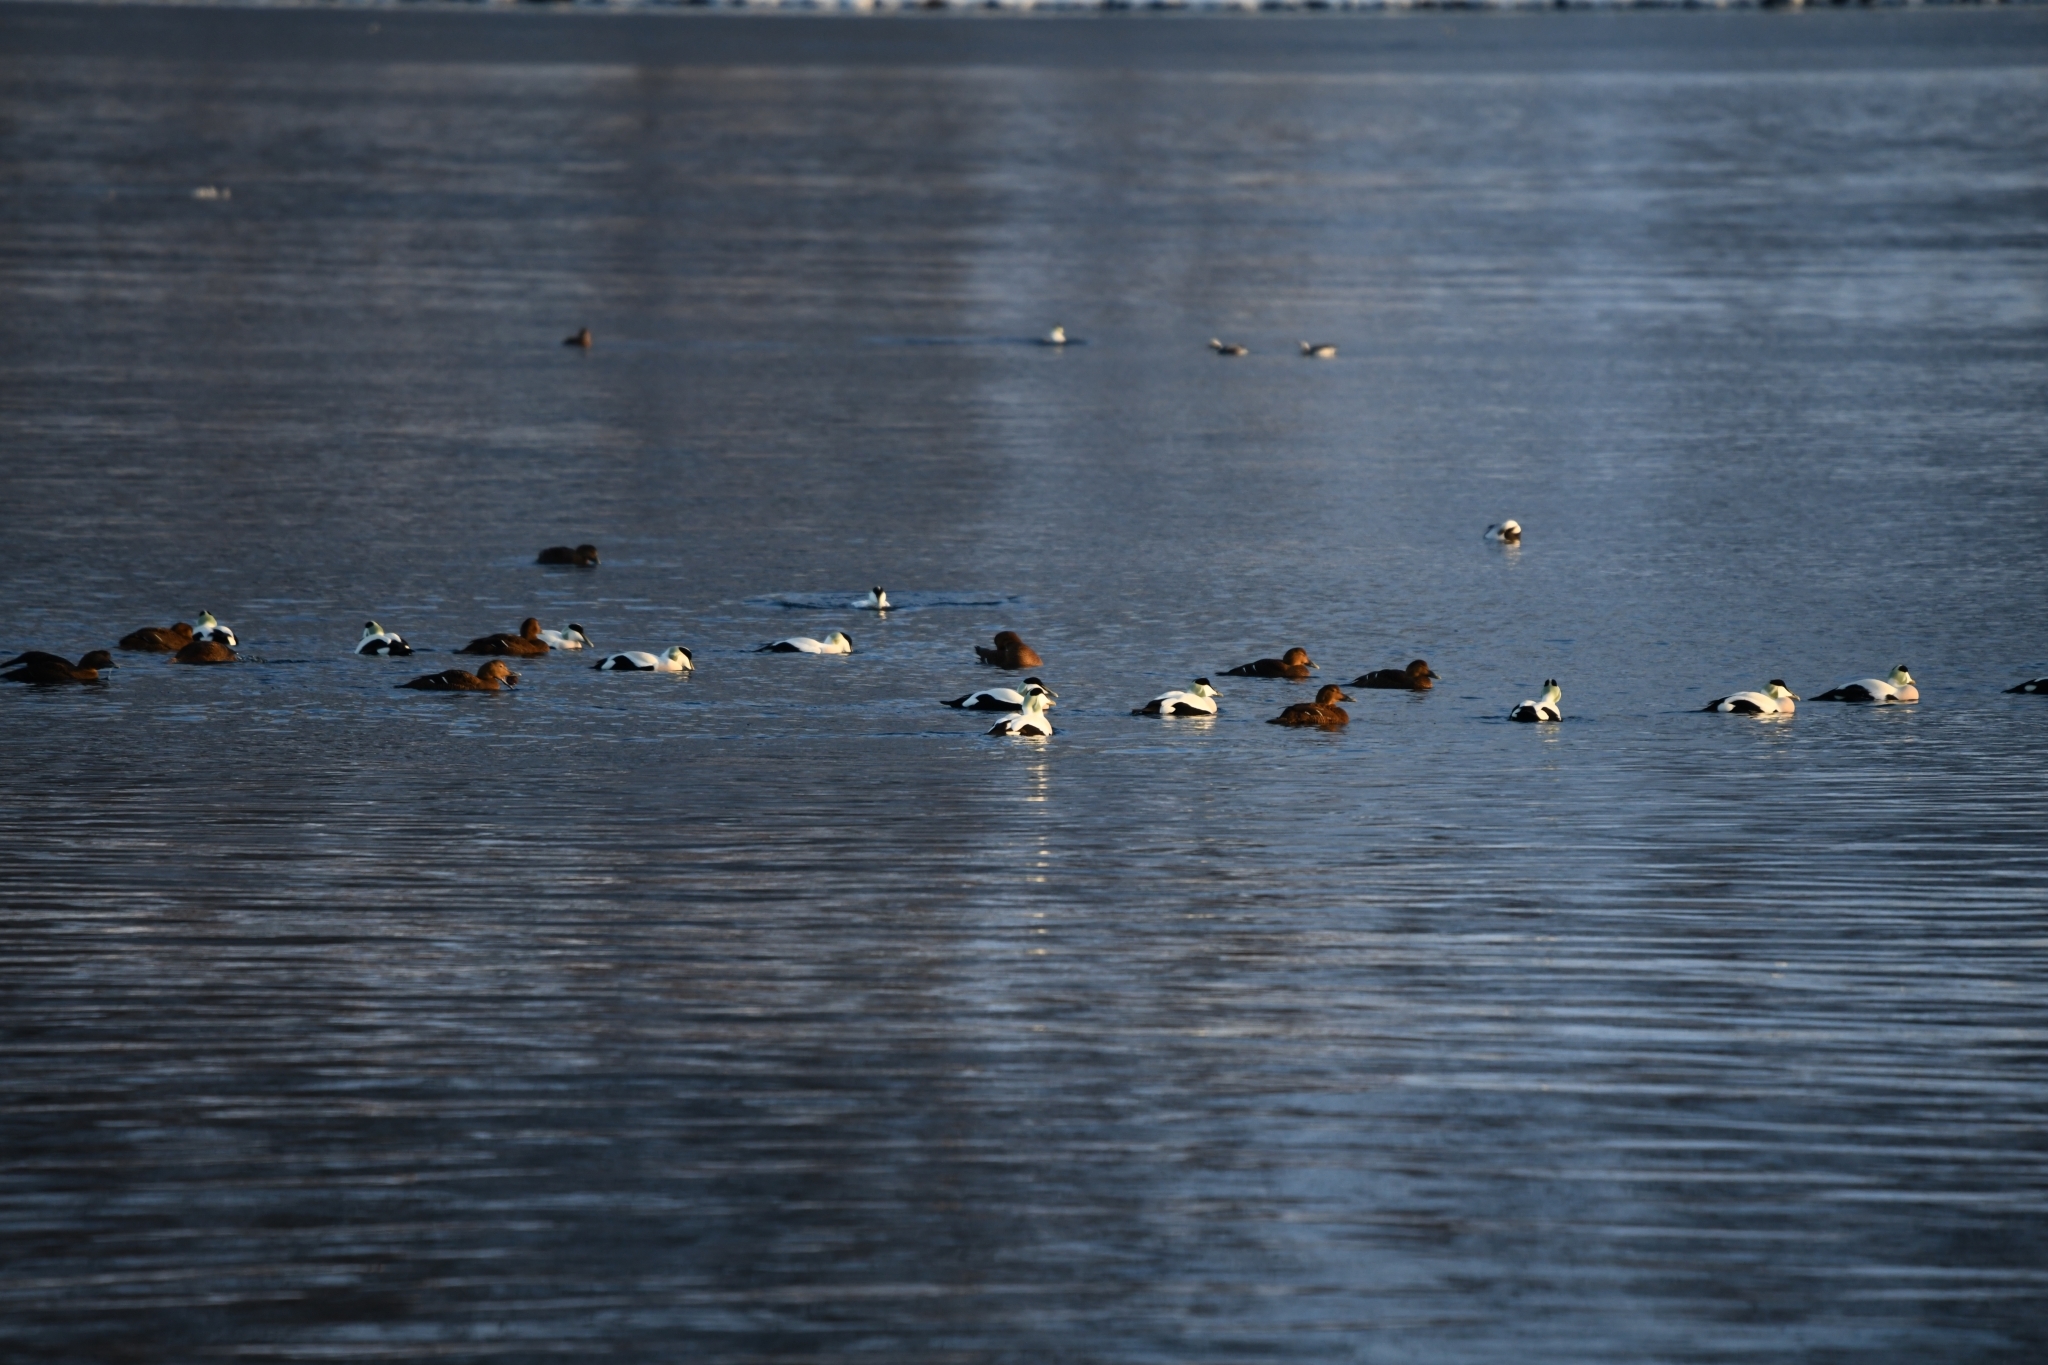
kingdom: Animalia
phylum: Chordata
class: Aves
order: Anseriformes
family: Anatidae
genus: Somateria
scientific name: Somateria mollissima
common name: Common eider
